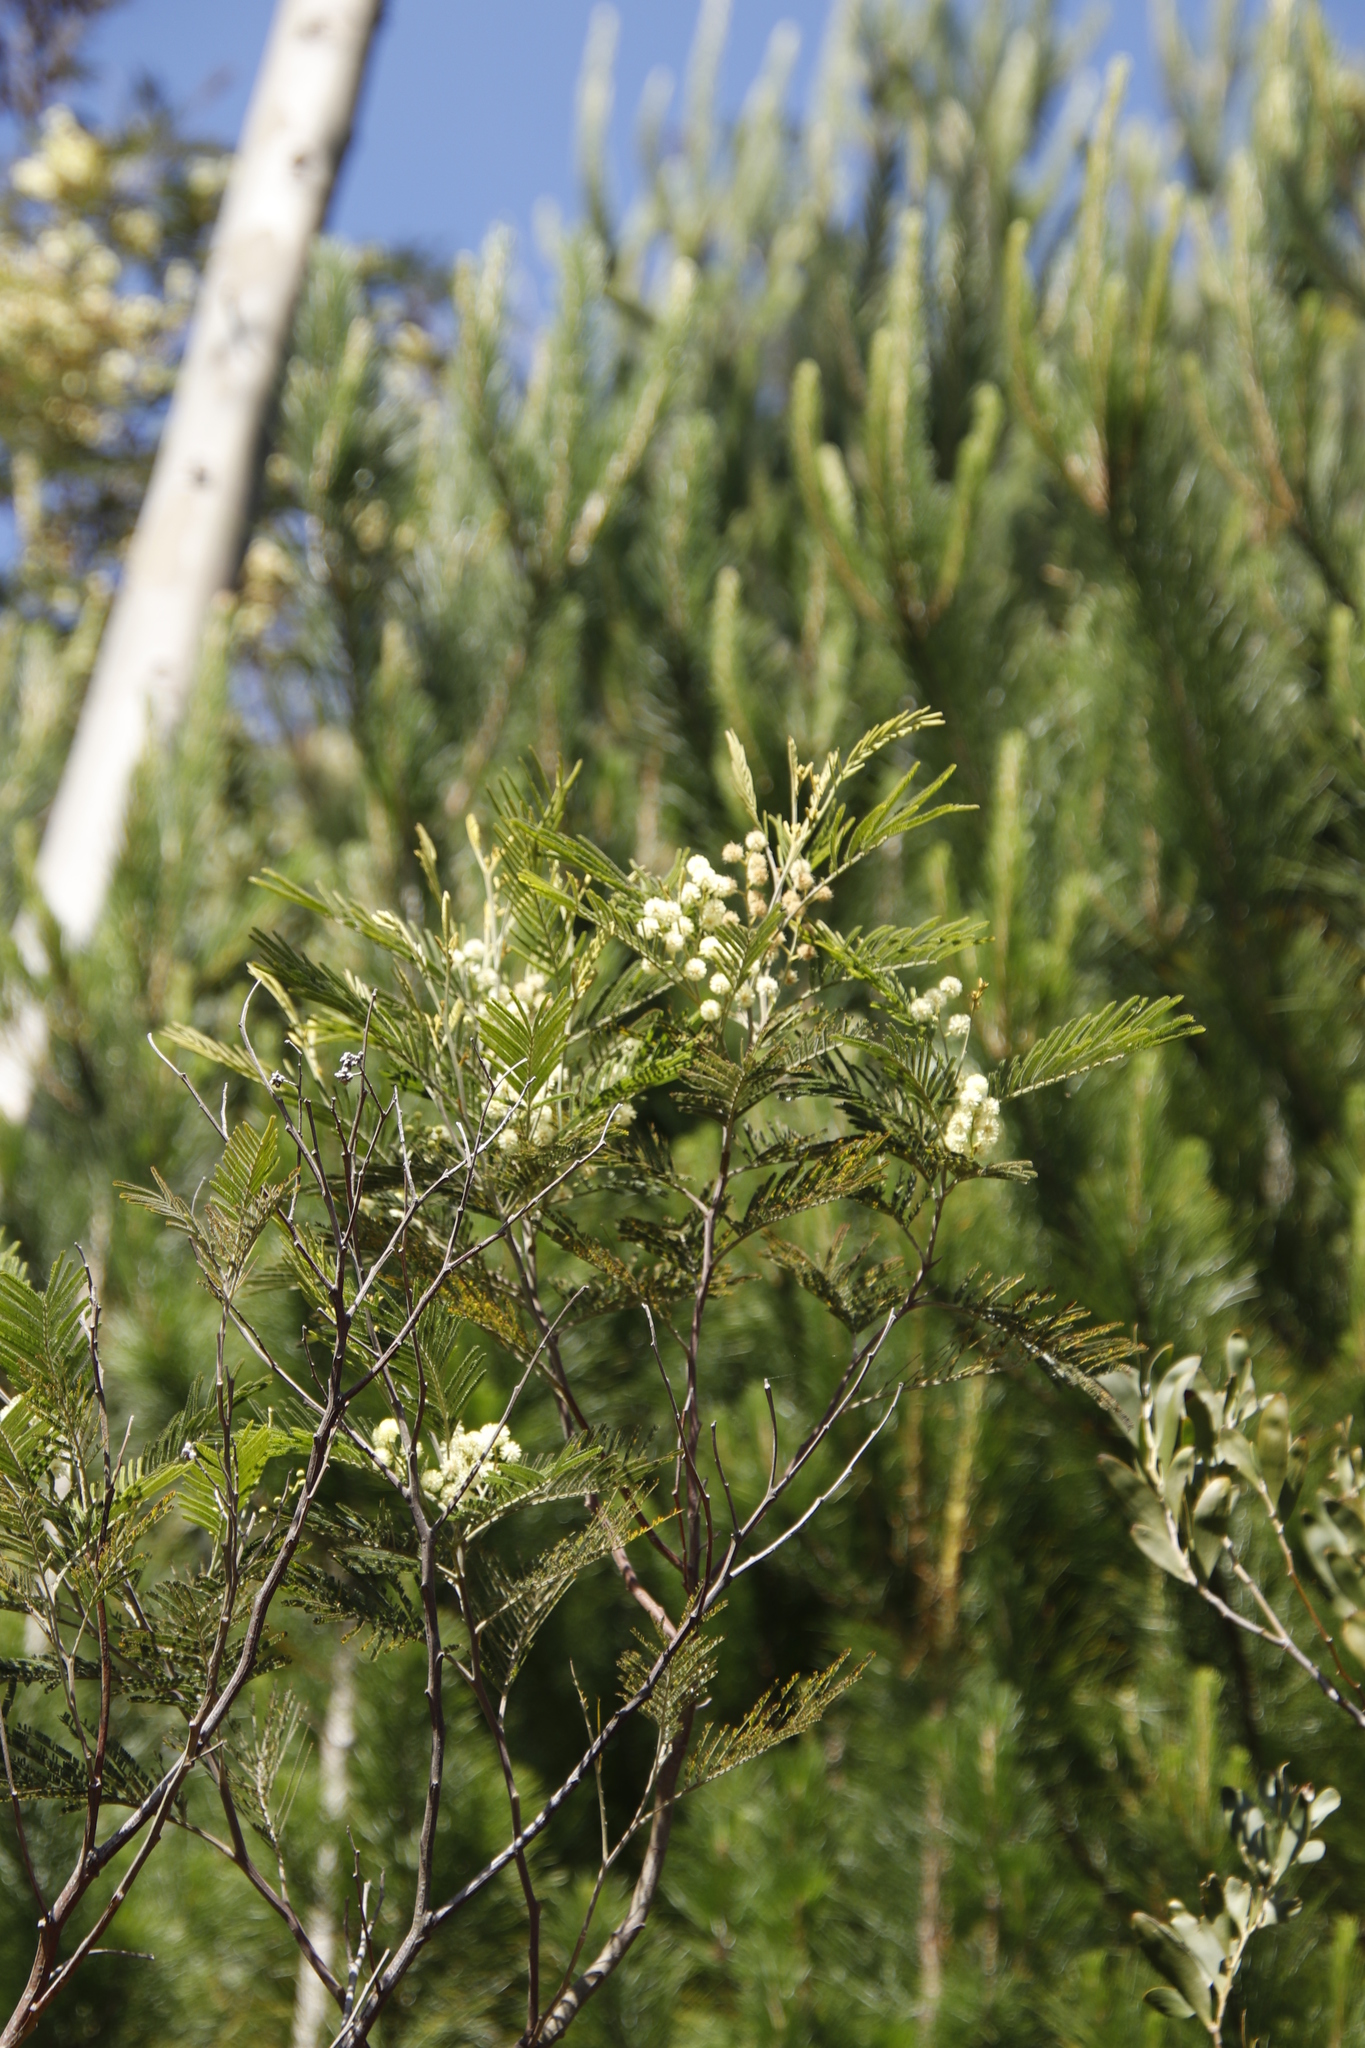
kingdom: Plantae
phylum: Tracheophyta
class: Magnoliopsida
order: Fabales
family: Fabaceae
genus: Acacia
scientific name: Acacia mearnsii
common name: Black wattle
